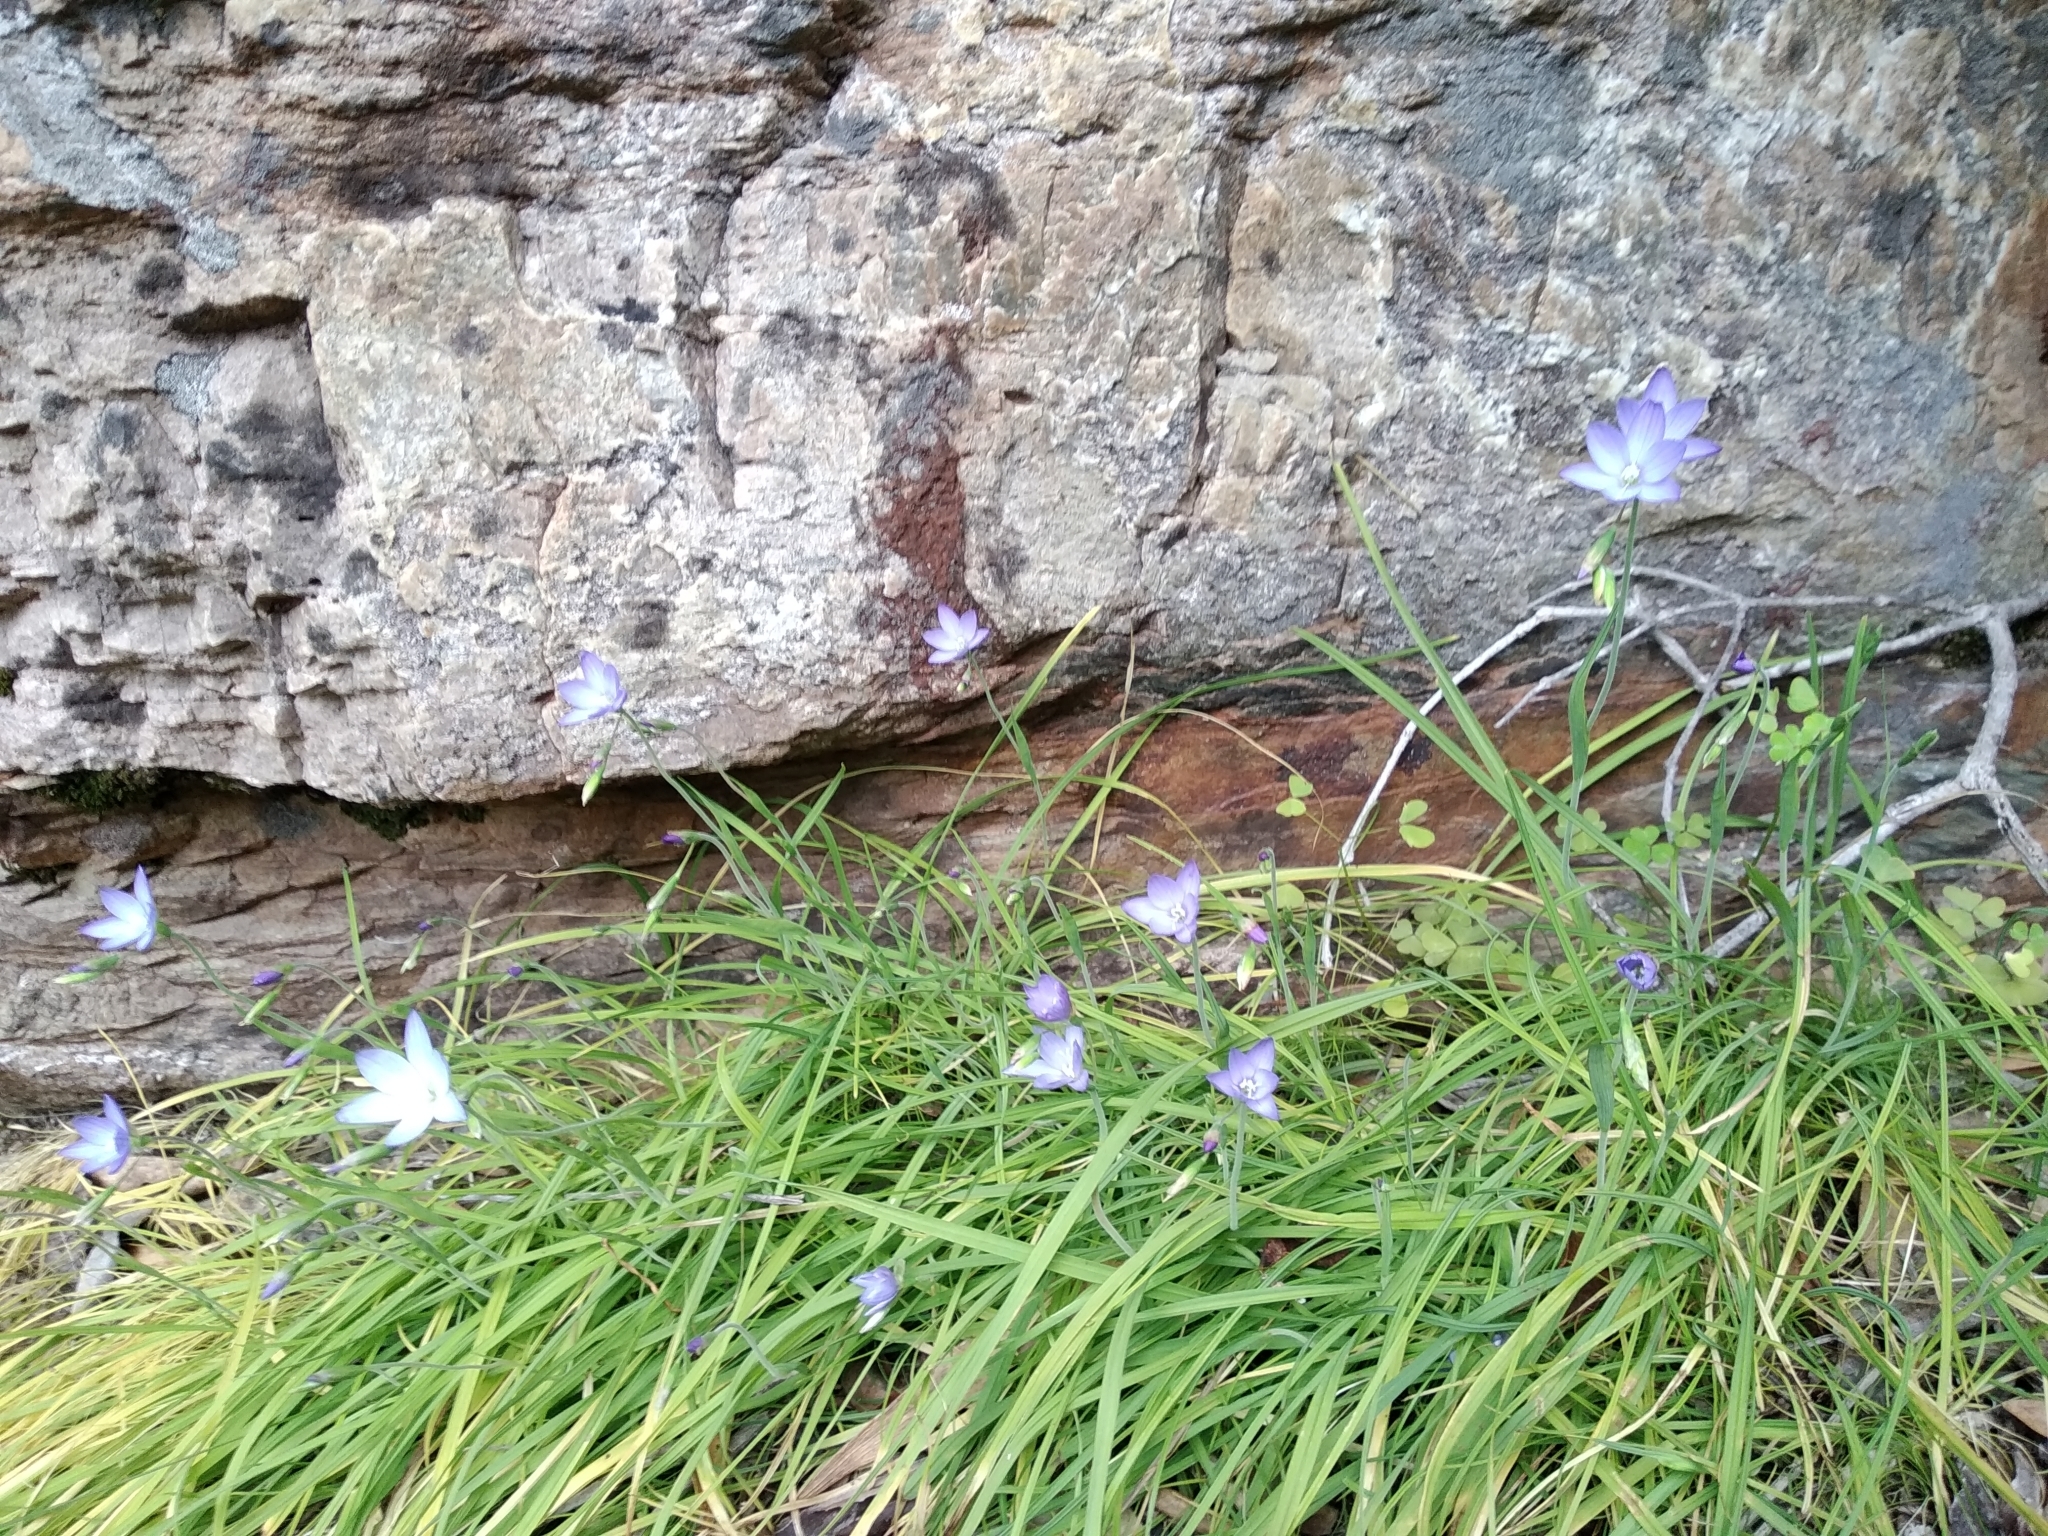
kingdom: Plantae
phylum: Tracheophyta
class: Liliopsida
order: Asparagales
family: Iridaceae
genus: Geissorhiza
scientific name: Geissorhiza aspera
